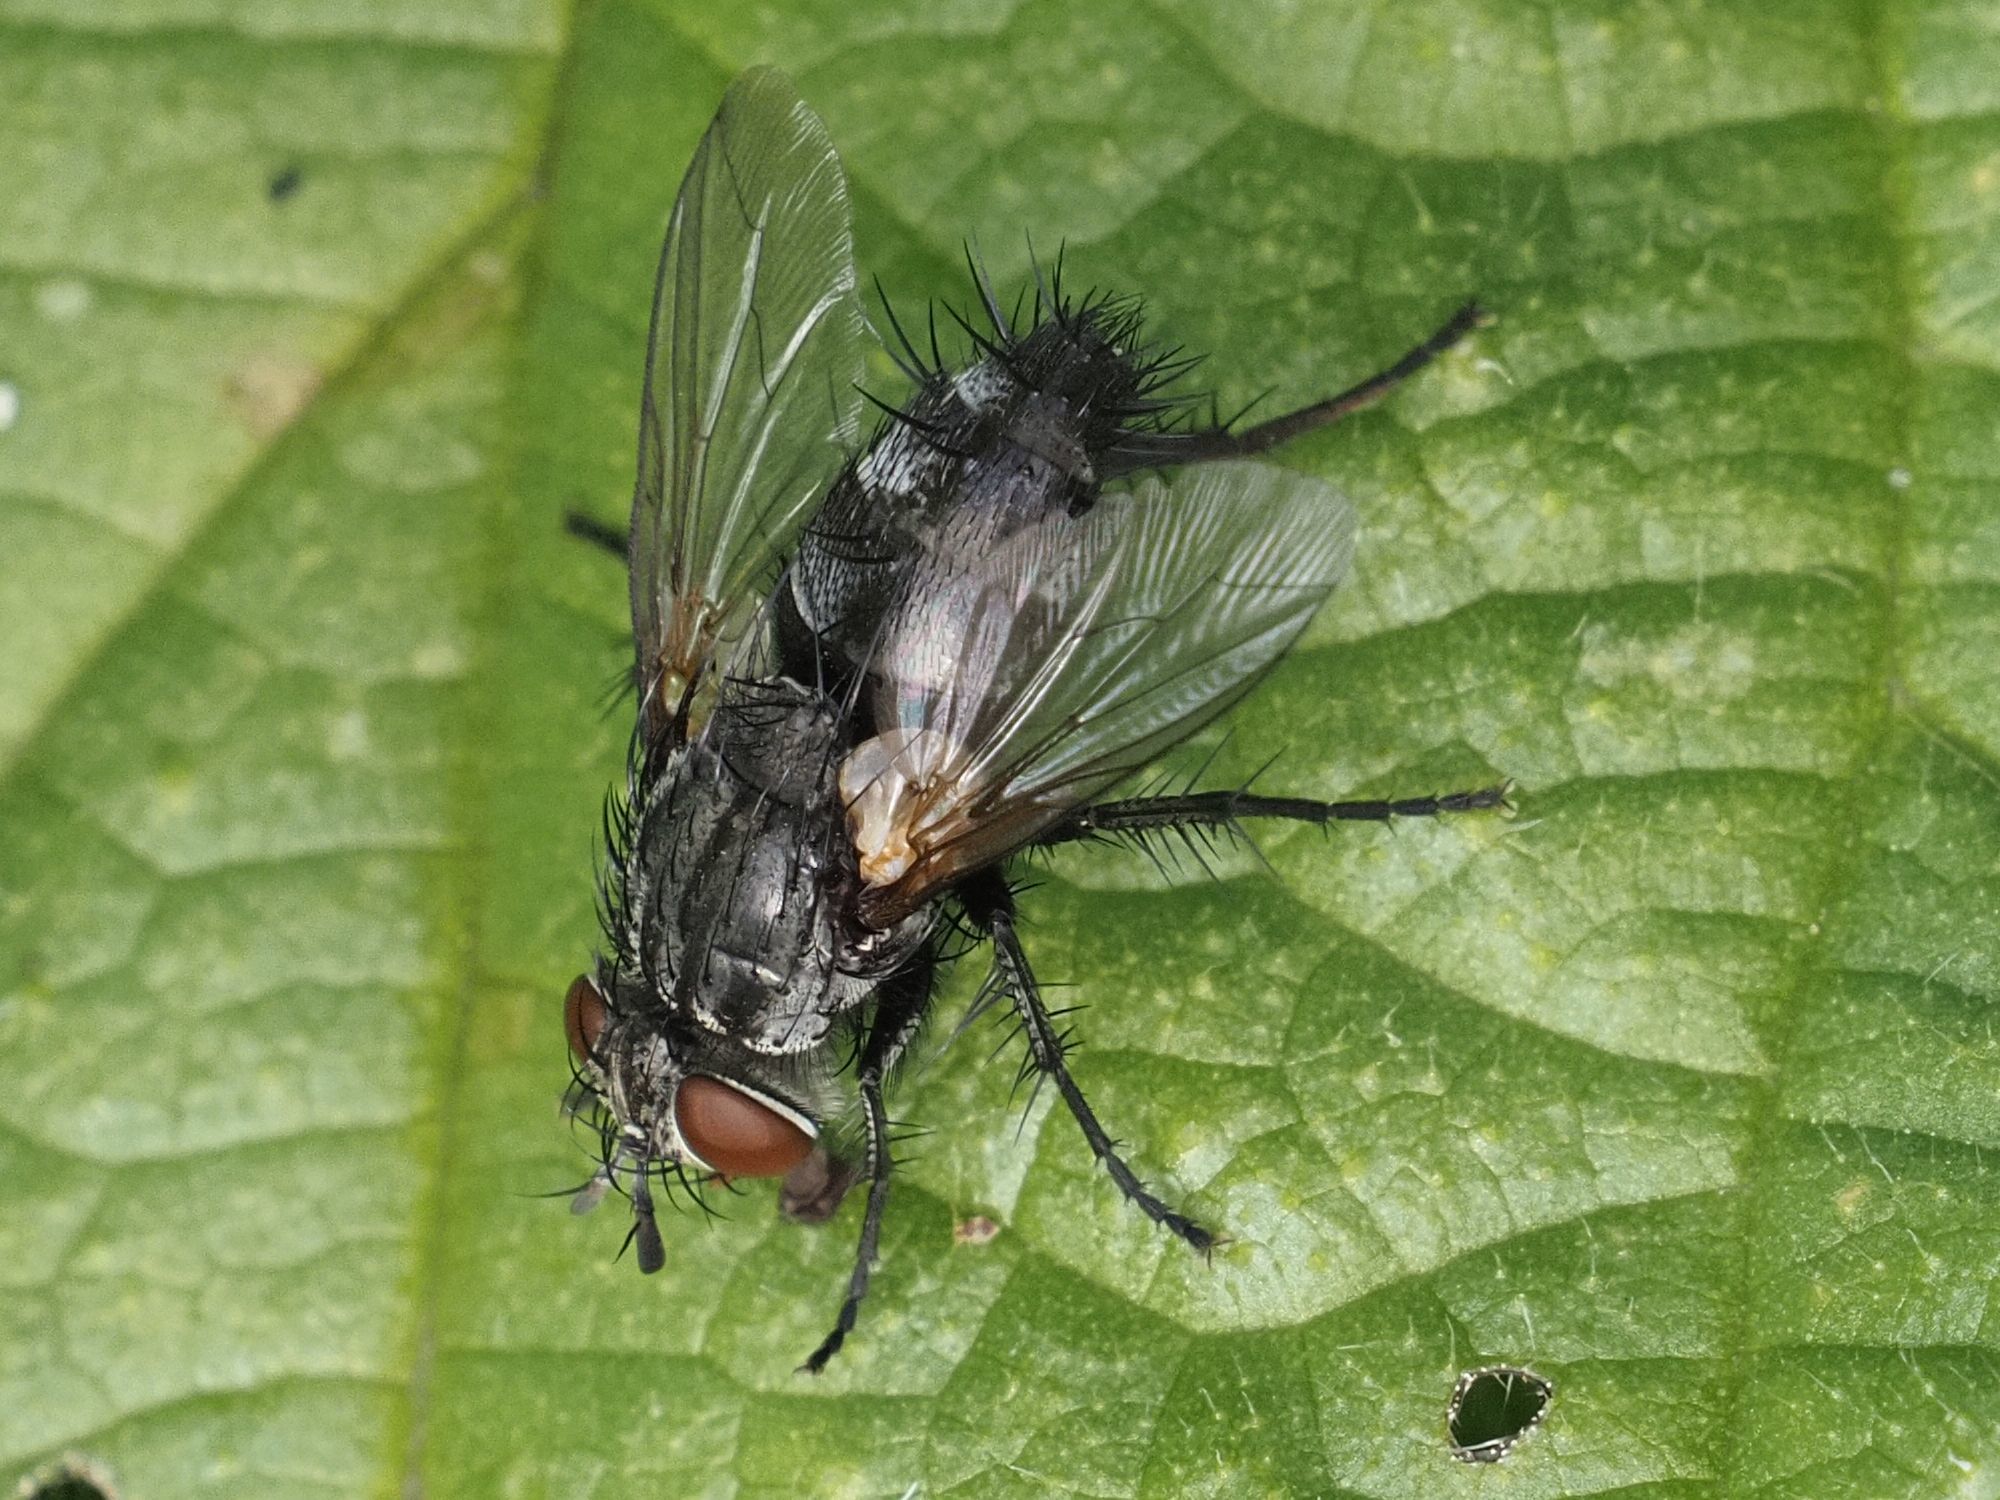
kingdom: Animalia
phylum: Arthropoda
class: Insecta
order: Diptera
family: Tachinidae
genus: Voria
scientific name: Voria ruralis
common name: Parasitic fly
